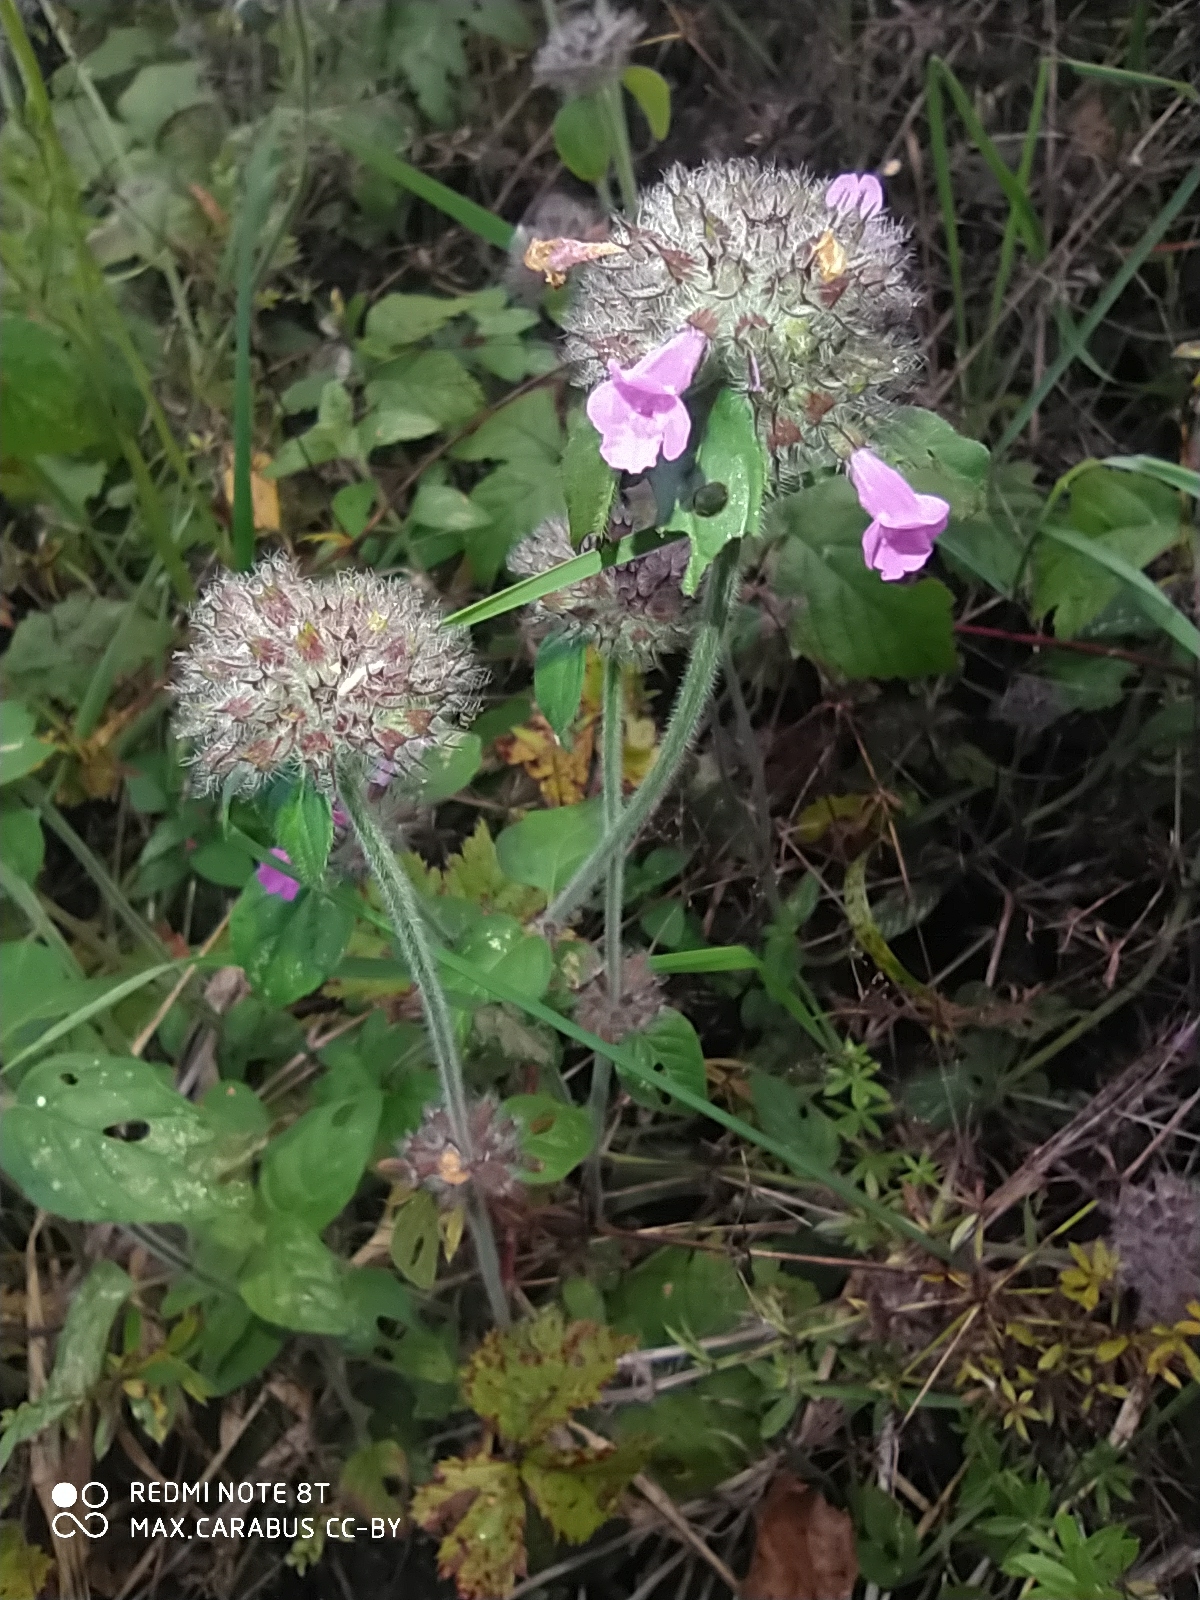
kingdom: Plantae
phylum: Tracheophyta
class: Magnoliopsida
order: Lamiales
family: Lamiaceae
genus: Clinopodium
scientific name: Clinopodium vulgare
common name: Wild basil
